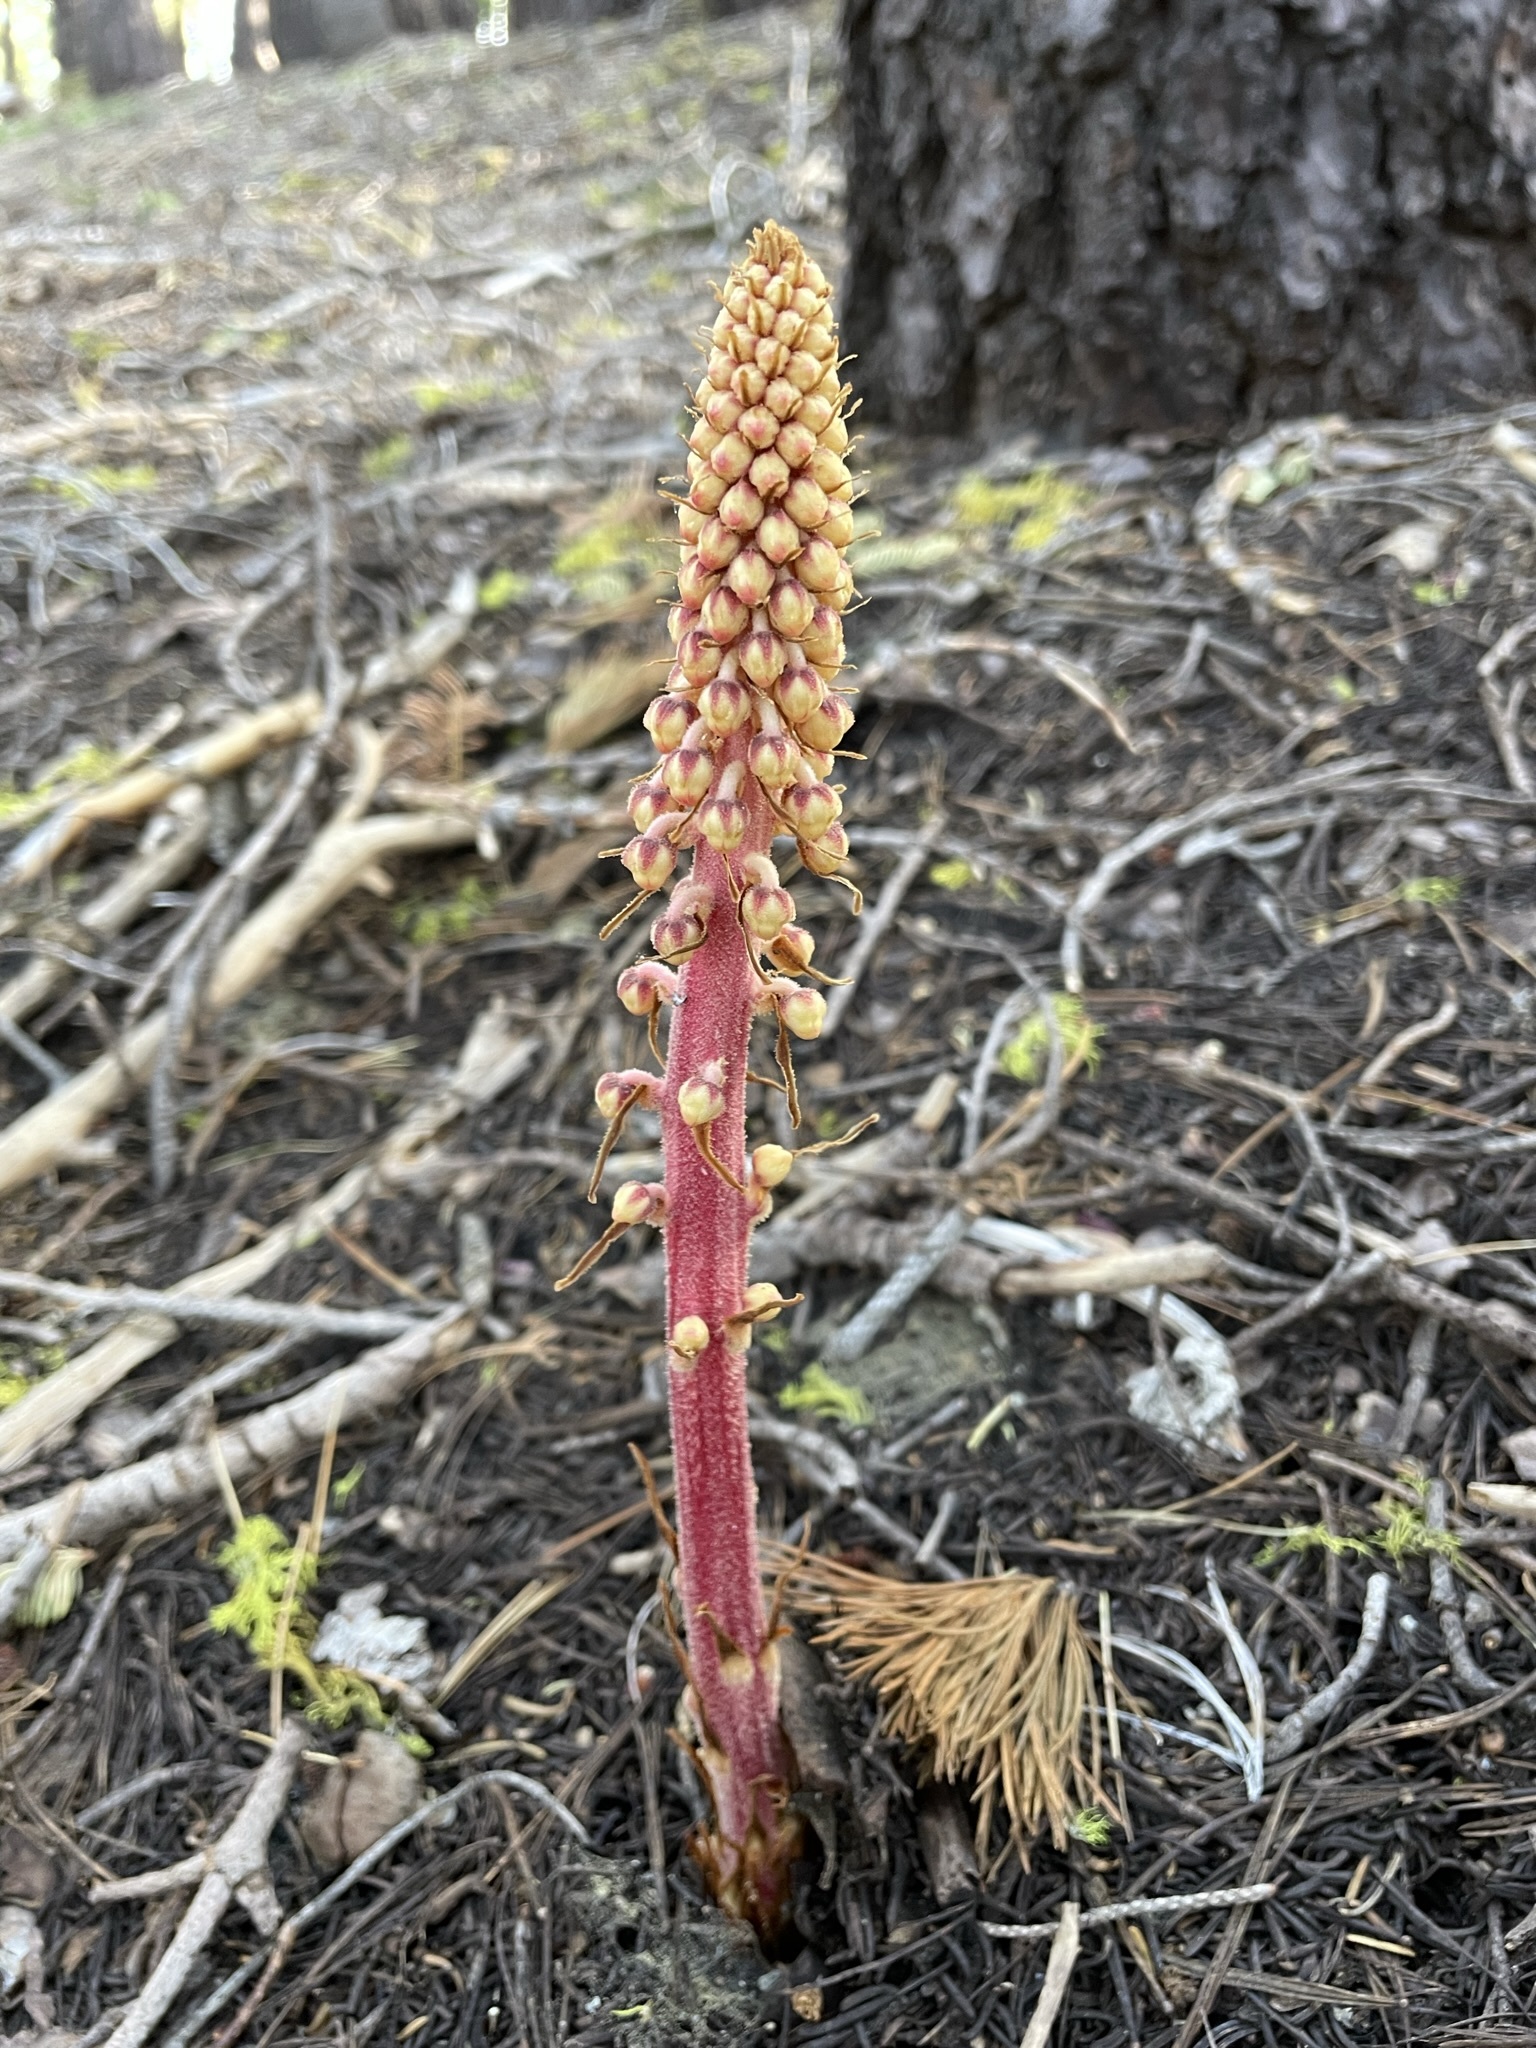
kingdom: Plantae
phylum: Tracheophyta
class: Magnoliopsida
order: Ericales
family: Ericaceae
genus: Pterospora
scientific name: Pterospora andromedea
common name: Giant bird's-nest
